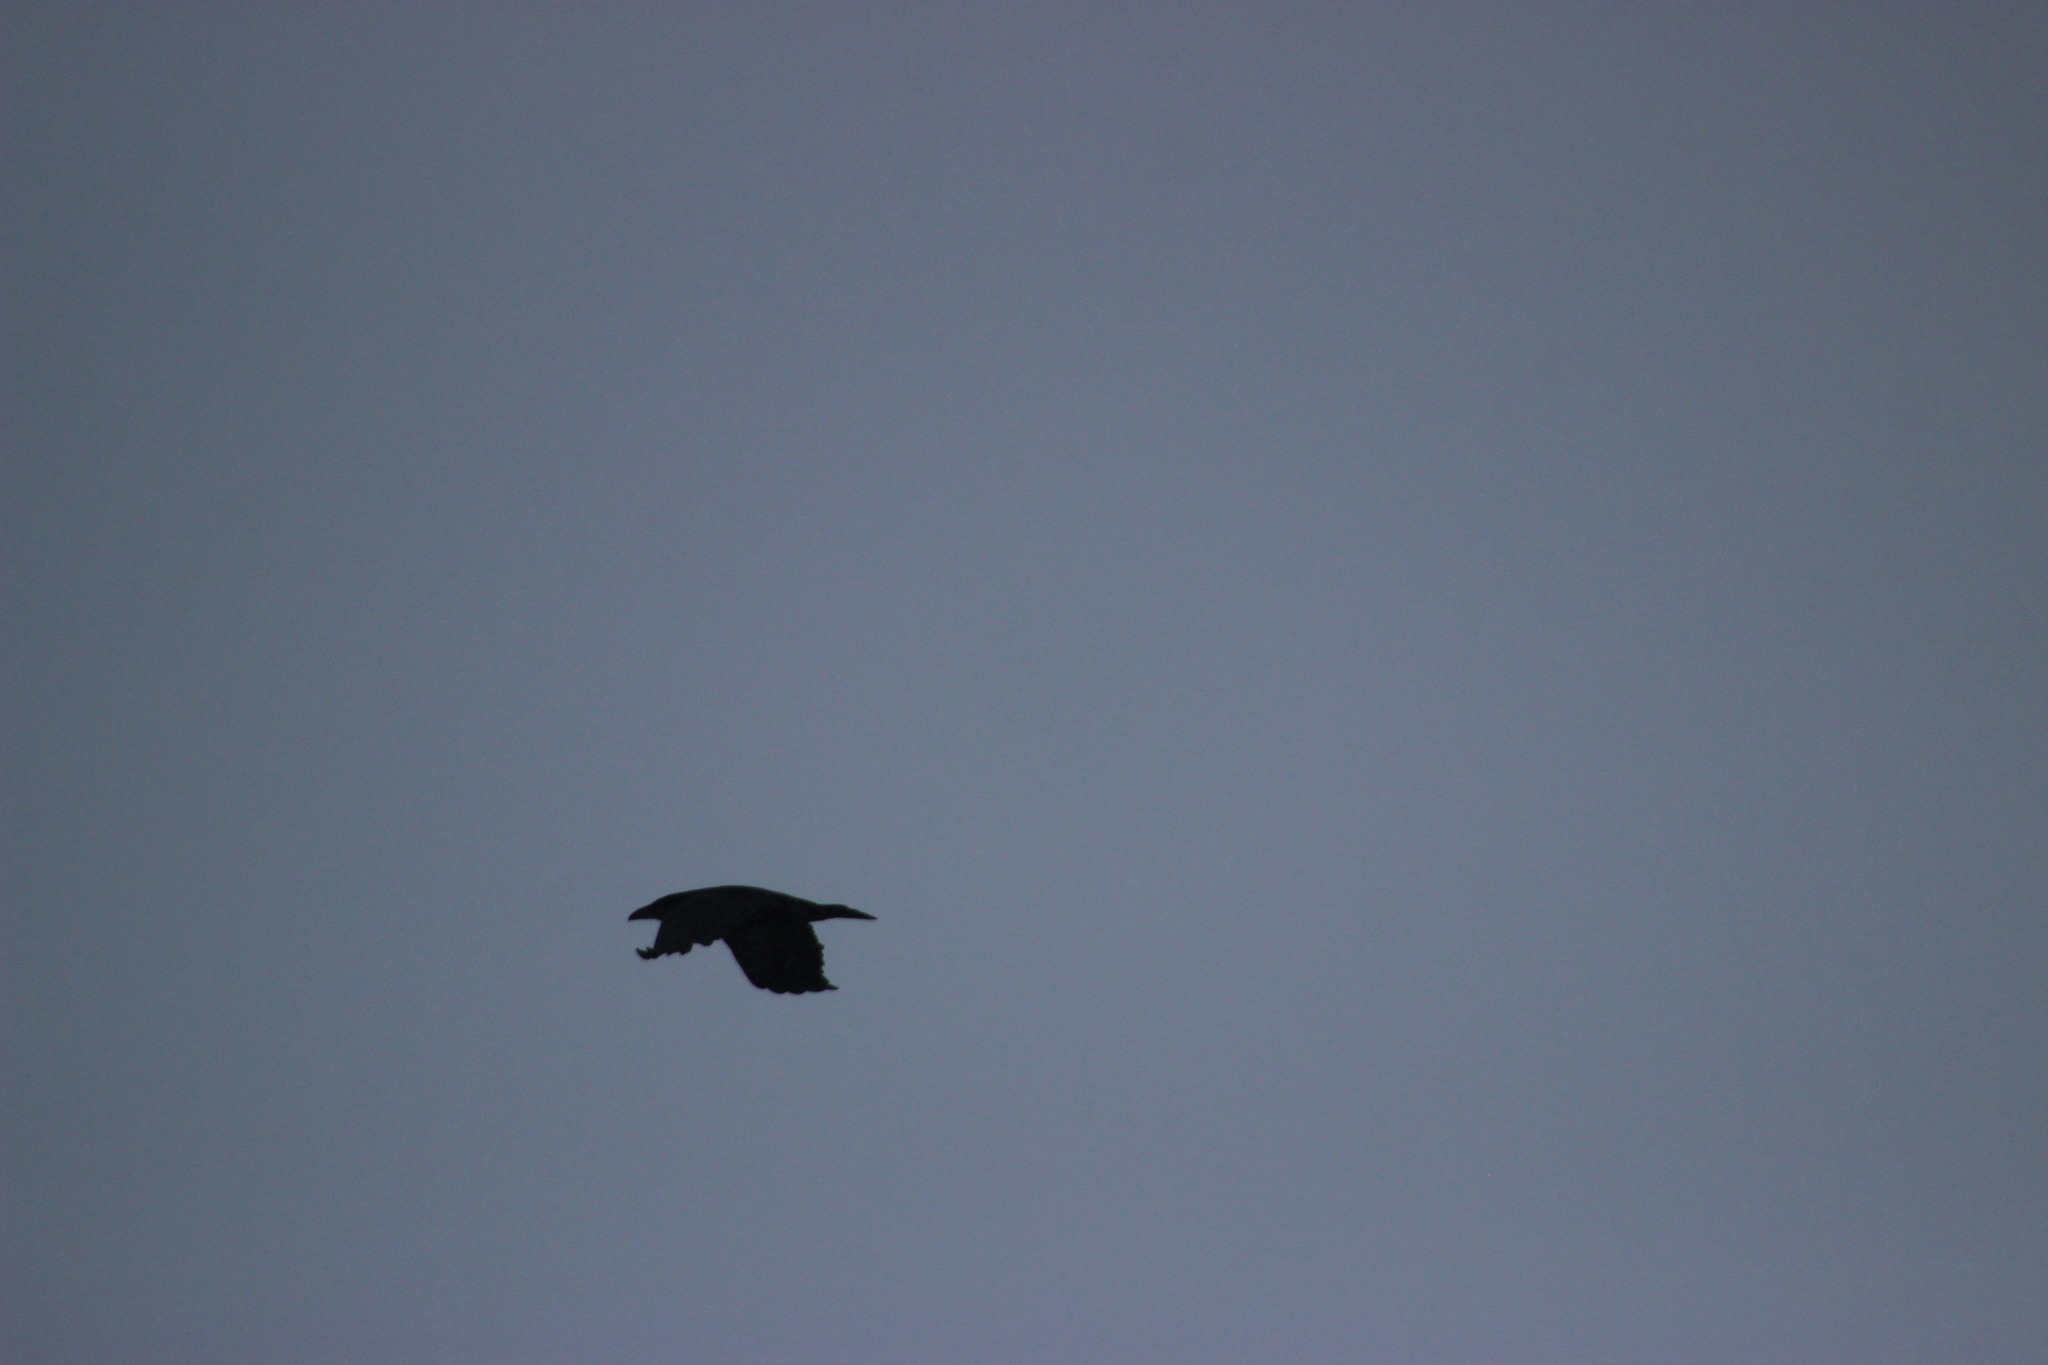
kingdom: Animalia
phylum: Chordata
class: Aves
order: Passeriformes
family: Corvidae
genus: Corvus
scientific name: Corvus corax
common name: Common raven
